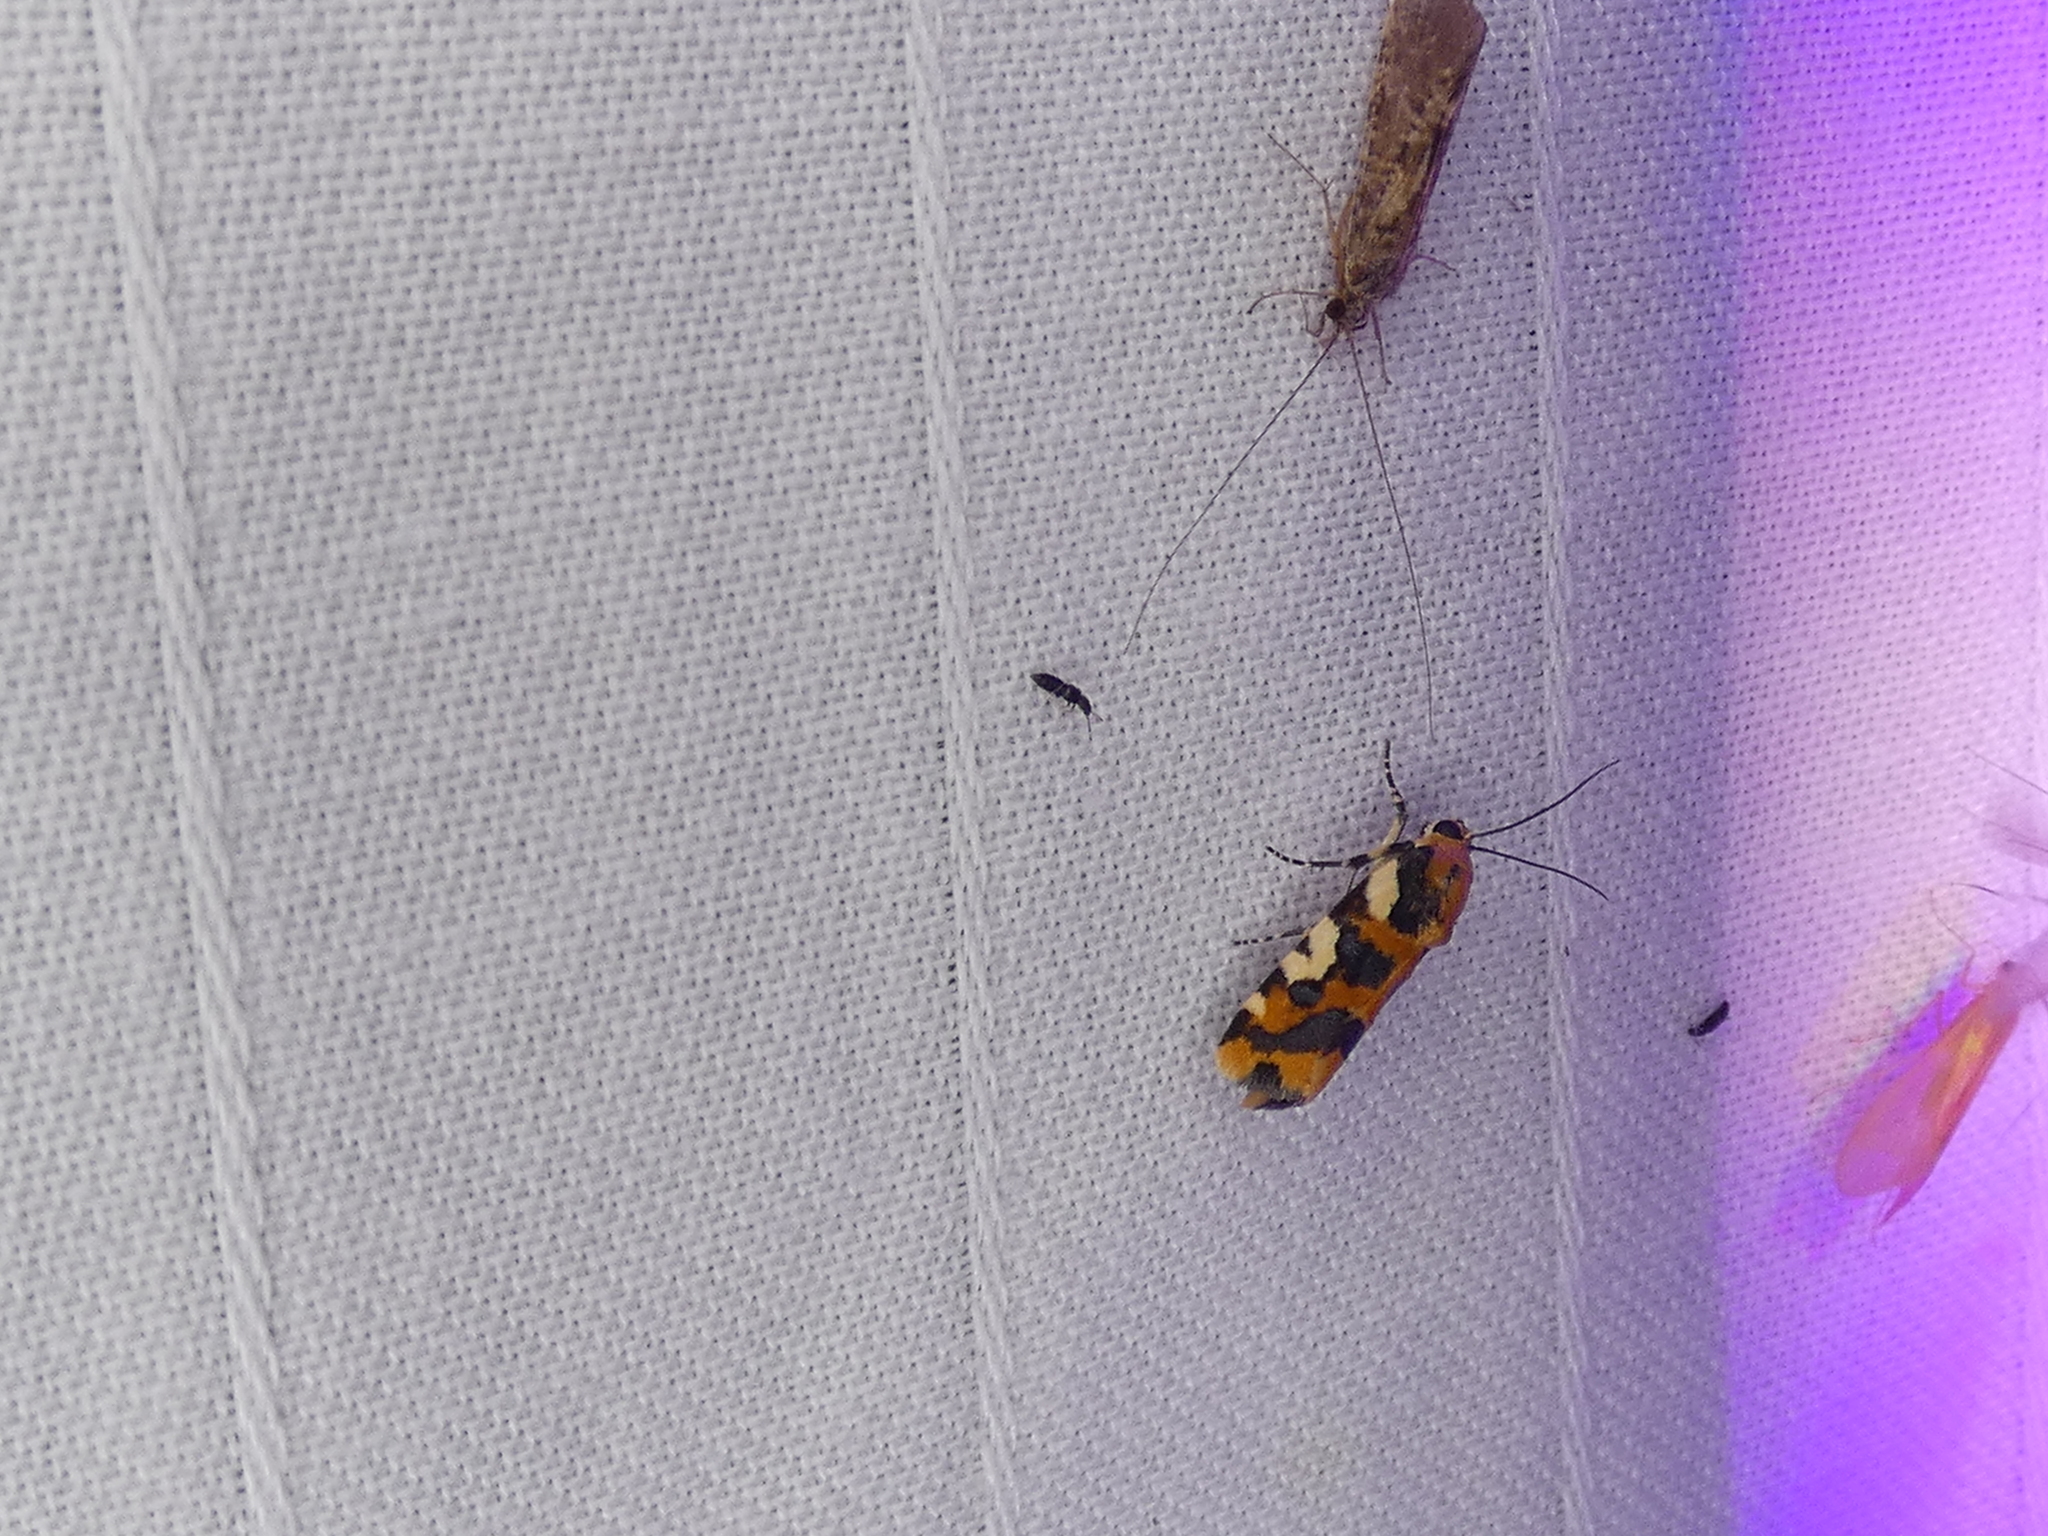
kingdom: Animalia
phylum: Arthropoda
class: Insecta
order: Lepidoptera
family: Noctuidae
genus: Acontia
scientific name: Acontia dama
